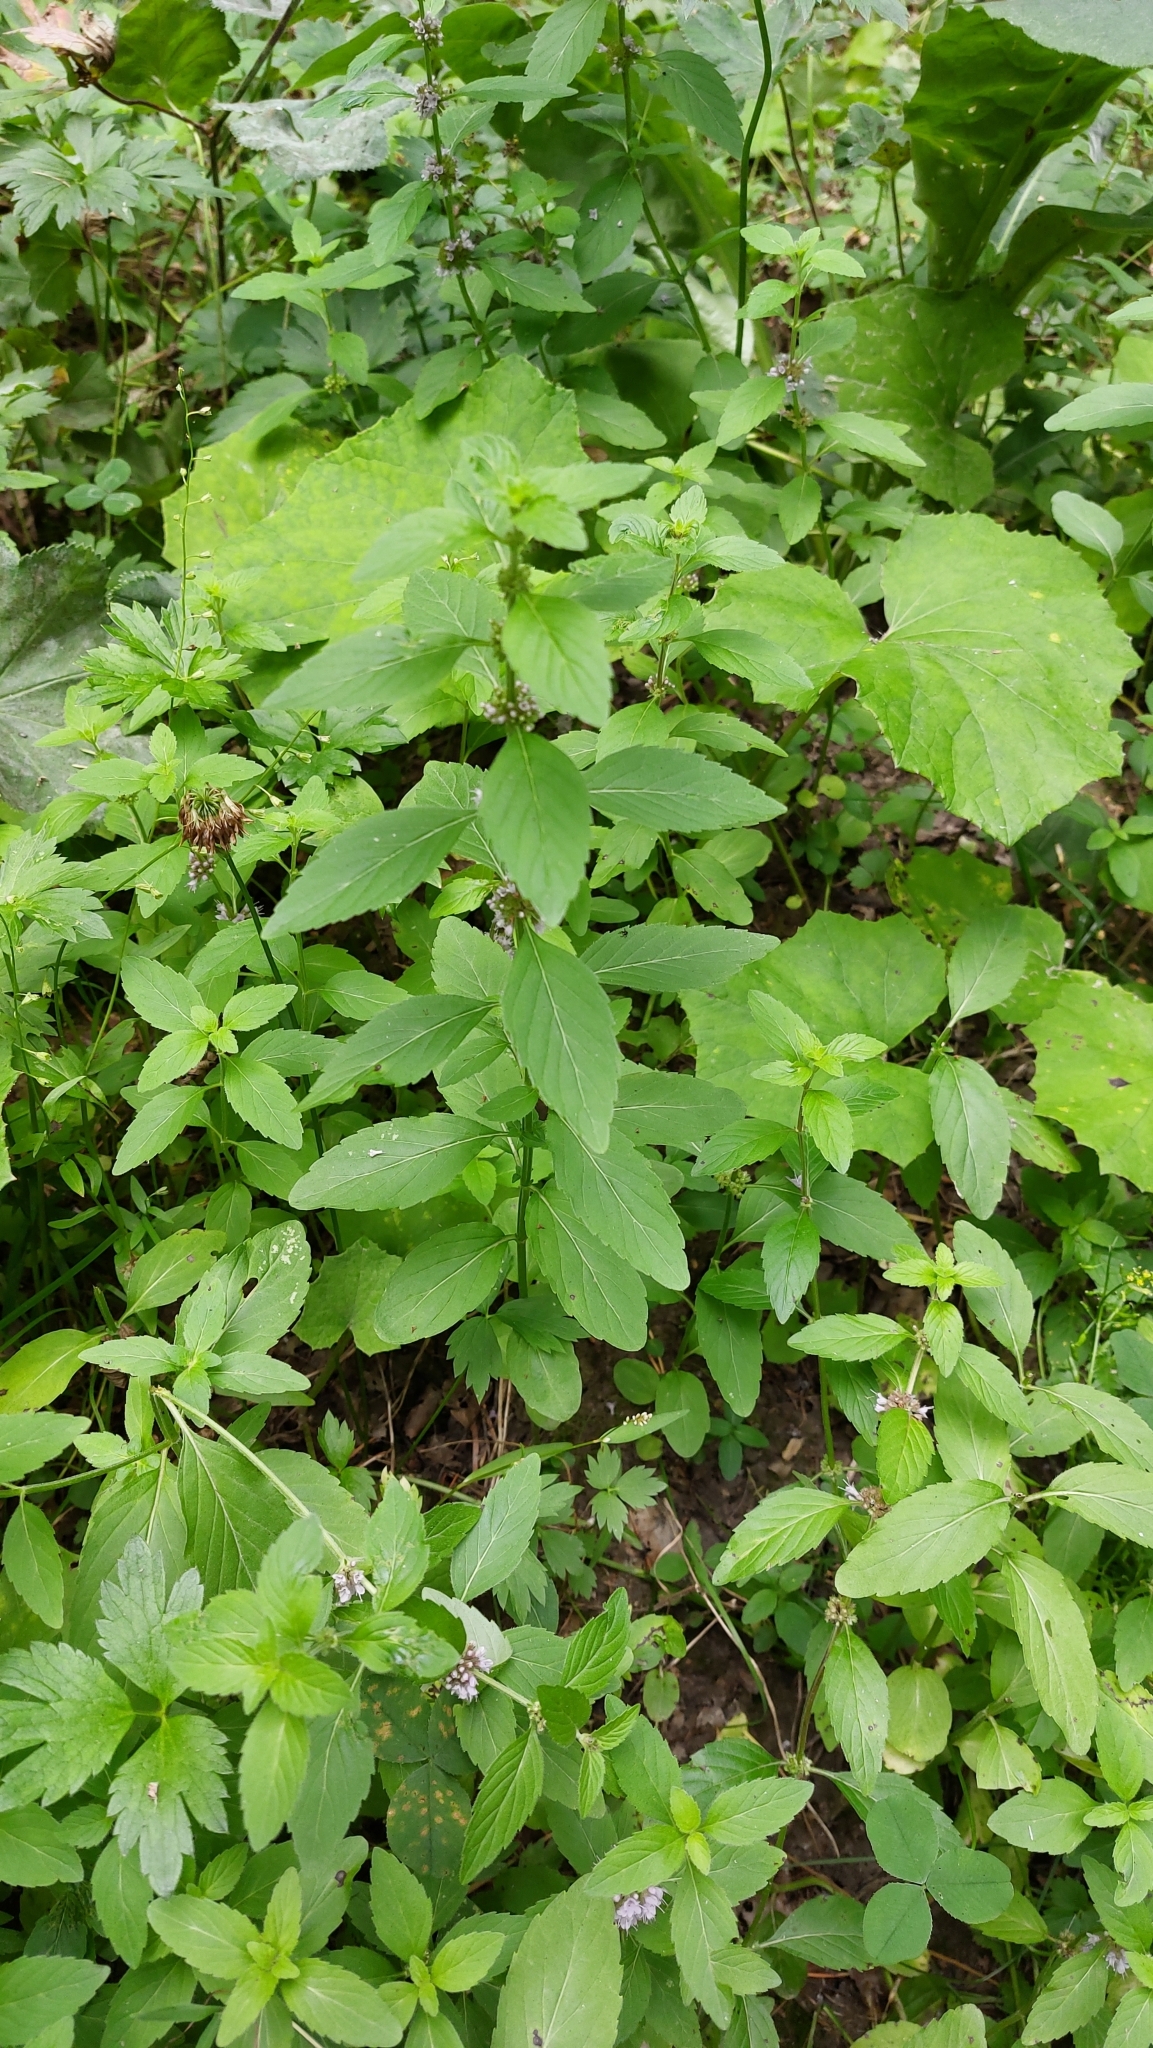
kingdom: Plantae
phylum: Tracheophyta
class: Magnoliopsida
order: Lamiales
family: Lamiaceae
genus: Mentha
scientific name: Mentha arvensis
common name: Corn mint
